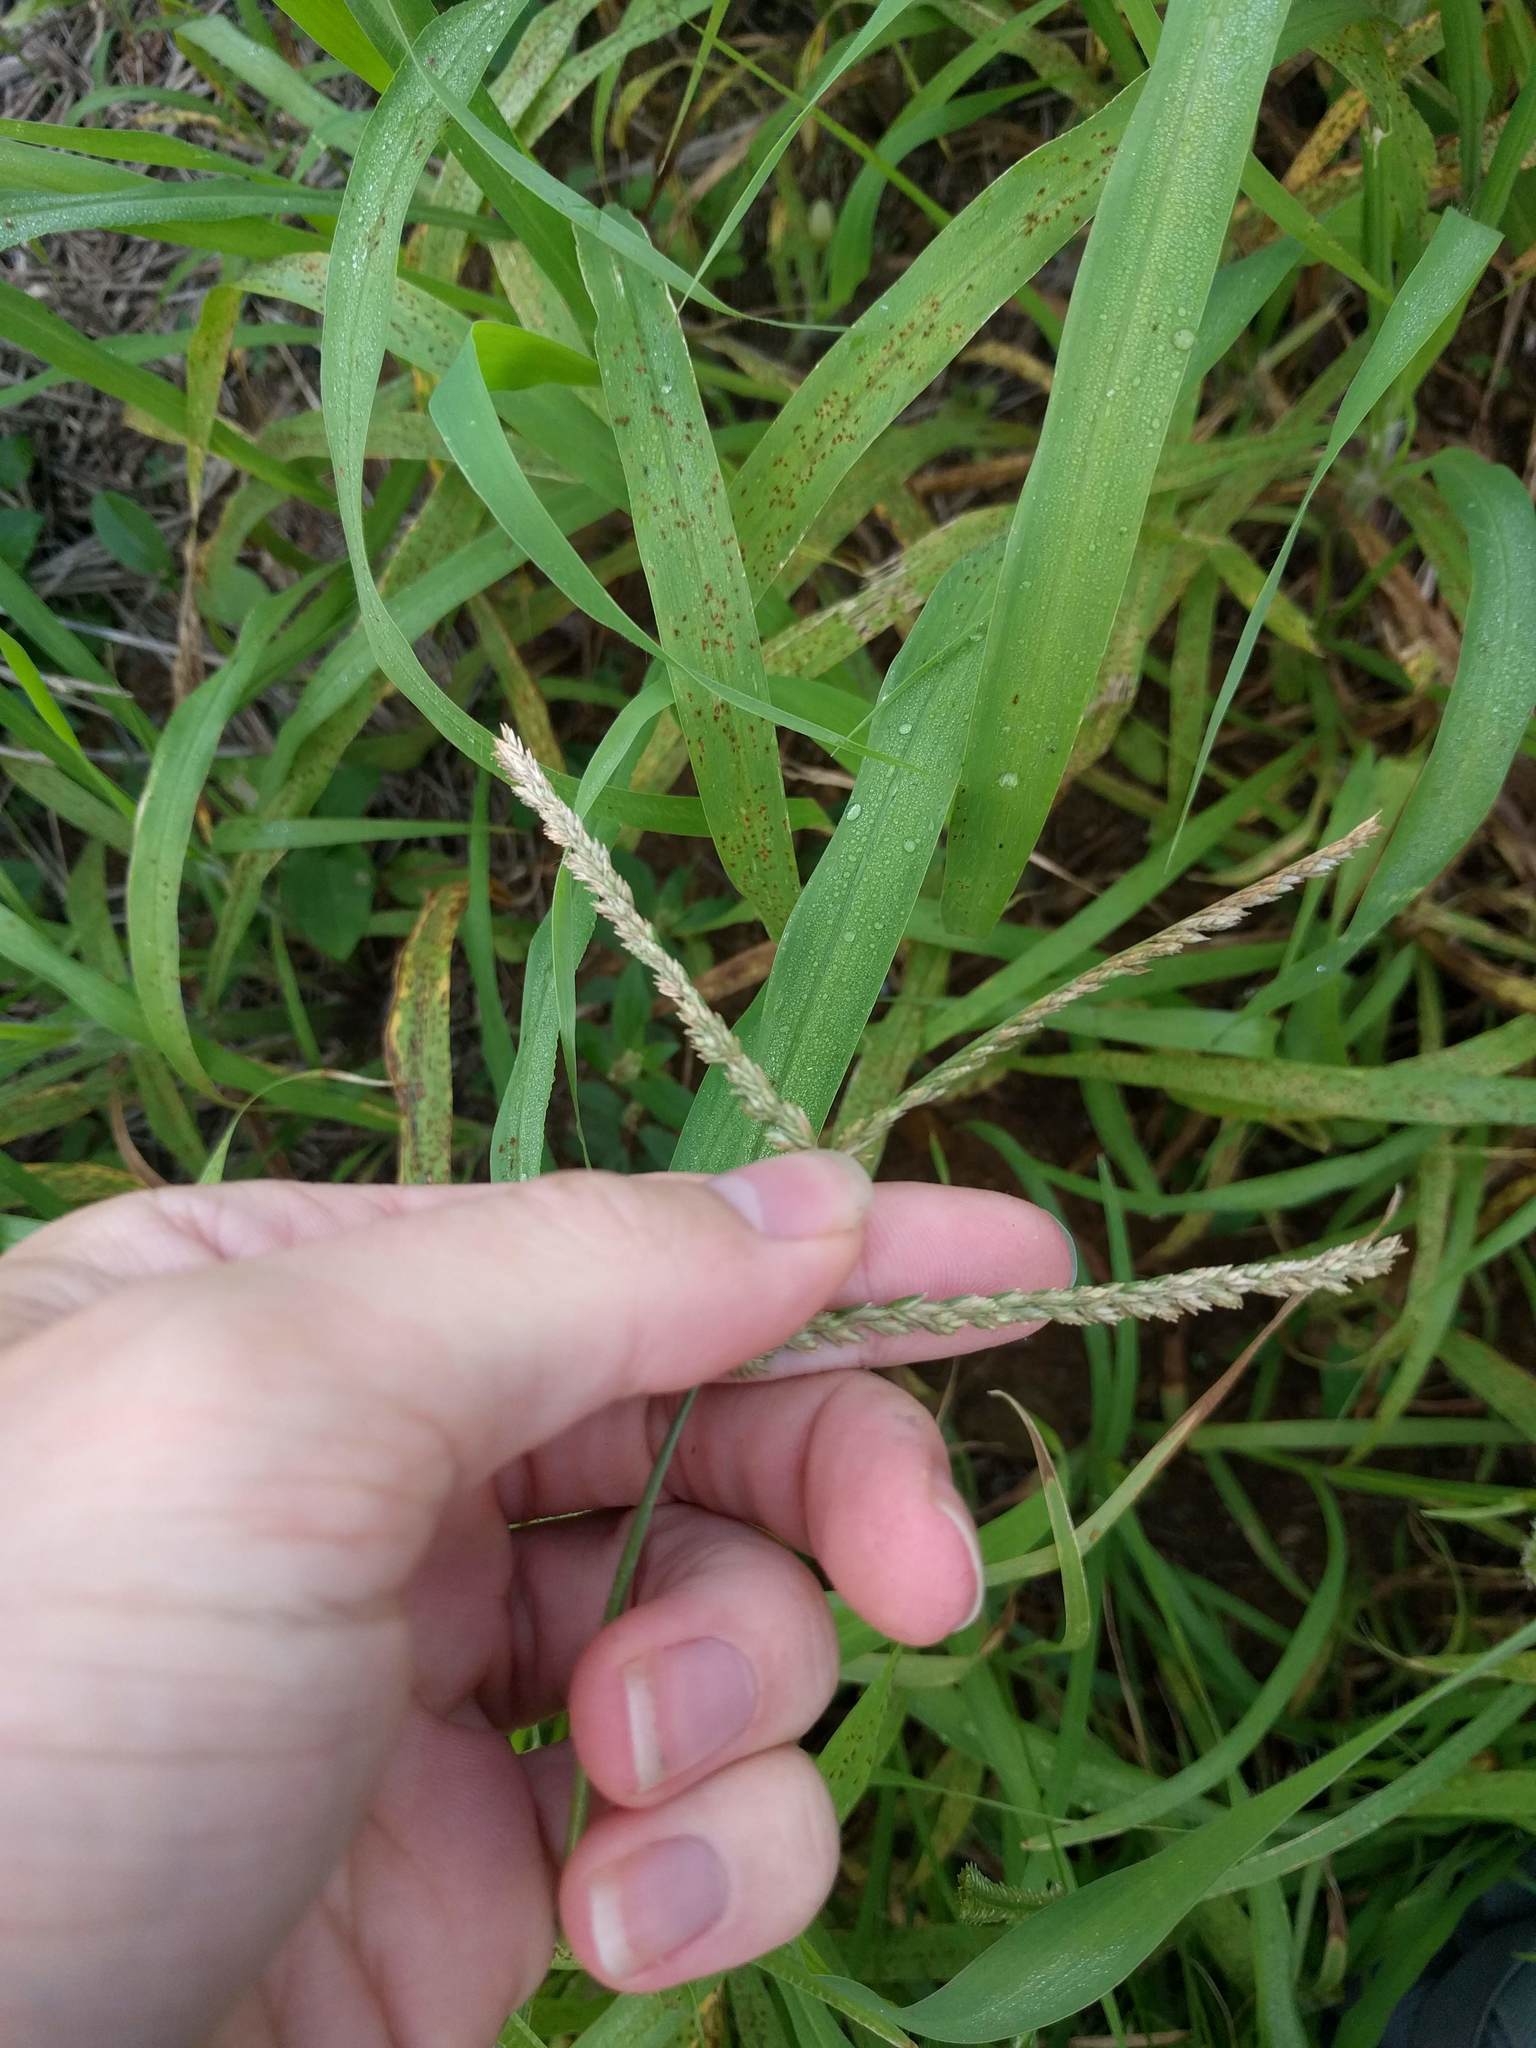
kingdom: Plantae
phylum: Tracheophyta
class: Liliopsida
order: Poales
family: Poaceae
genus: Eleusine
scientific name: Eleusine indica
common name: Yard-grass
